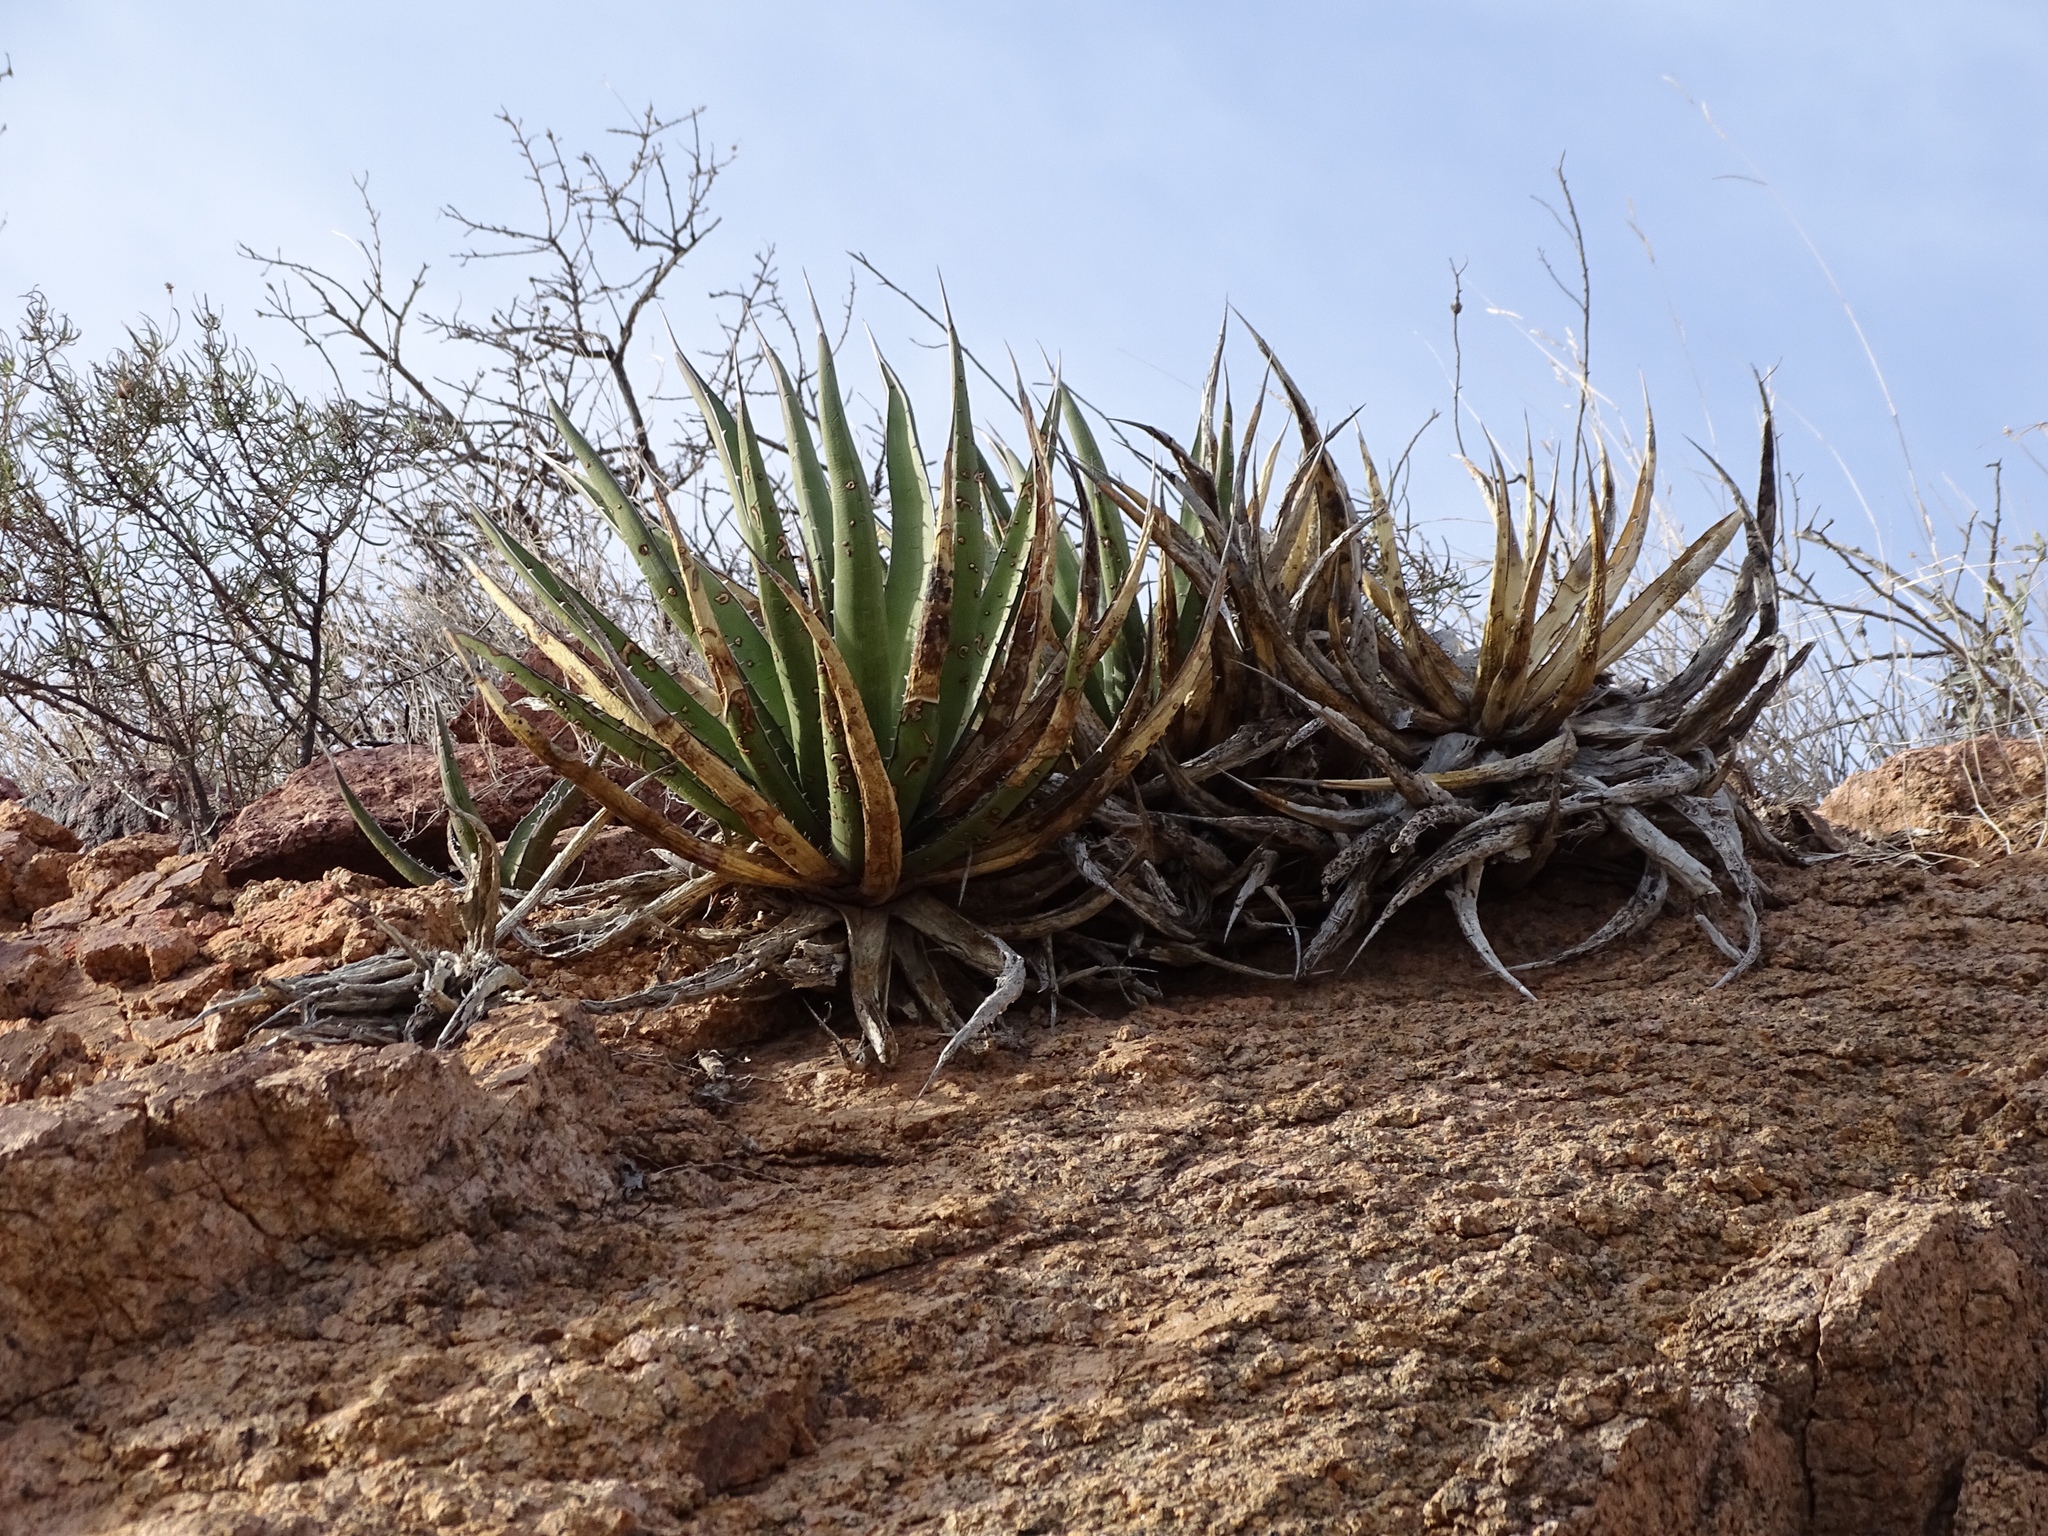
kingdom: Plantae
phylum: Tracheophyta
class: Liliopsida
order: Asparagales
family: Asparagaceae
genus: Agave
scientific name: Agave lechuguilla
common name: Lecheguilla agave
